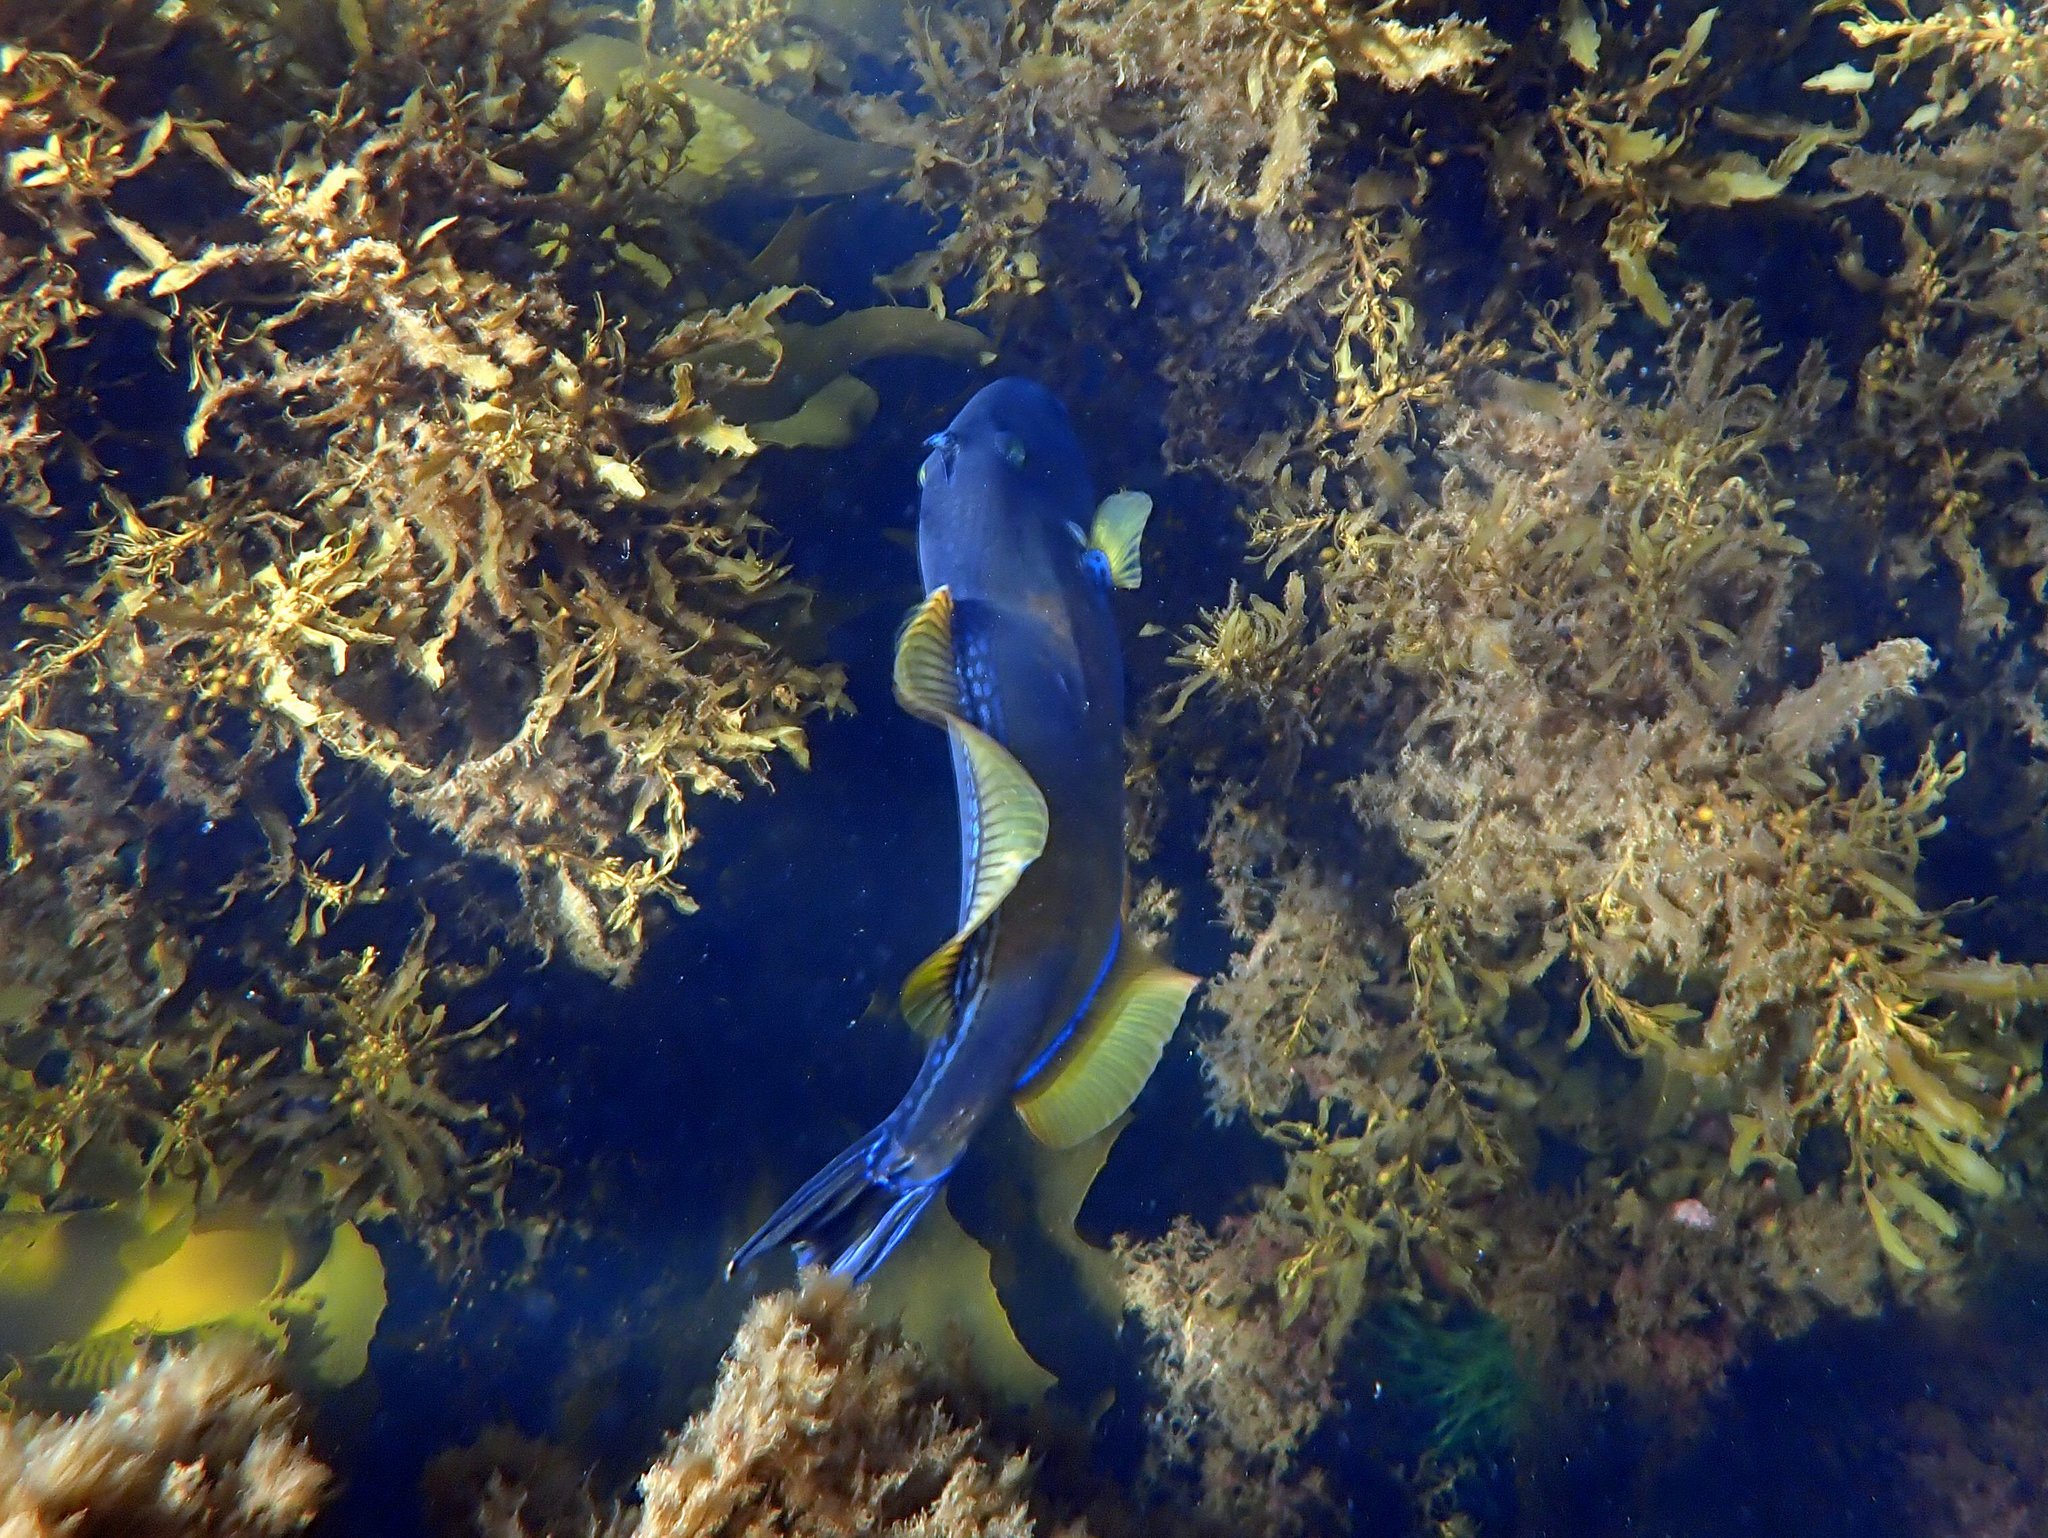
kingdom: Animalia
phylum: Chordata
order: Tetraodontiformes
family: Monacanthidae
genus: Meuschenia
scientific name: Meuschenia freycineti
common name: Freycinet's leatherjacket
